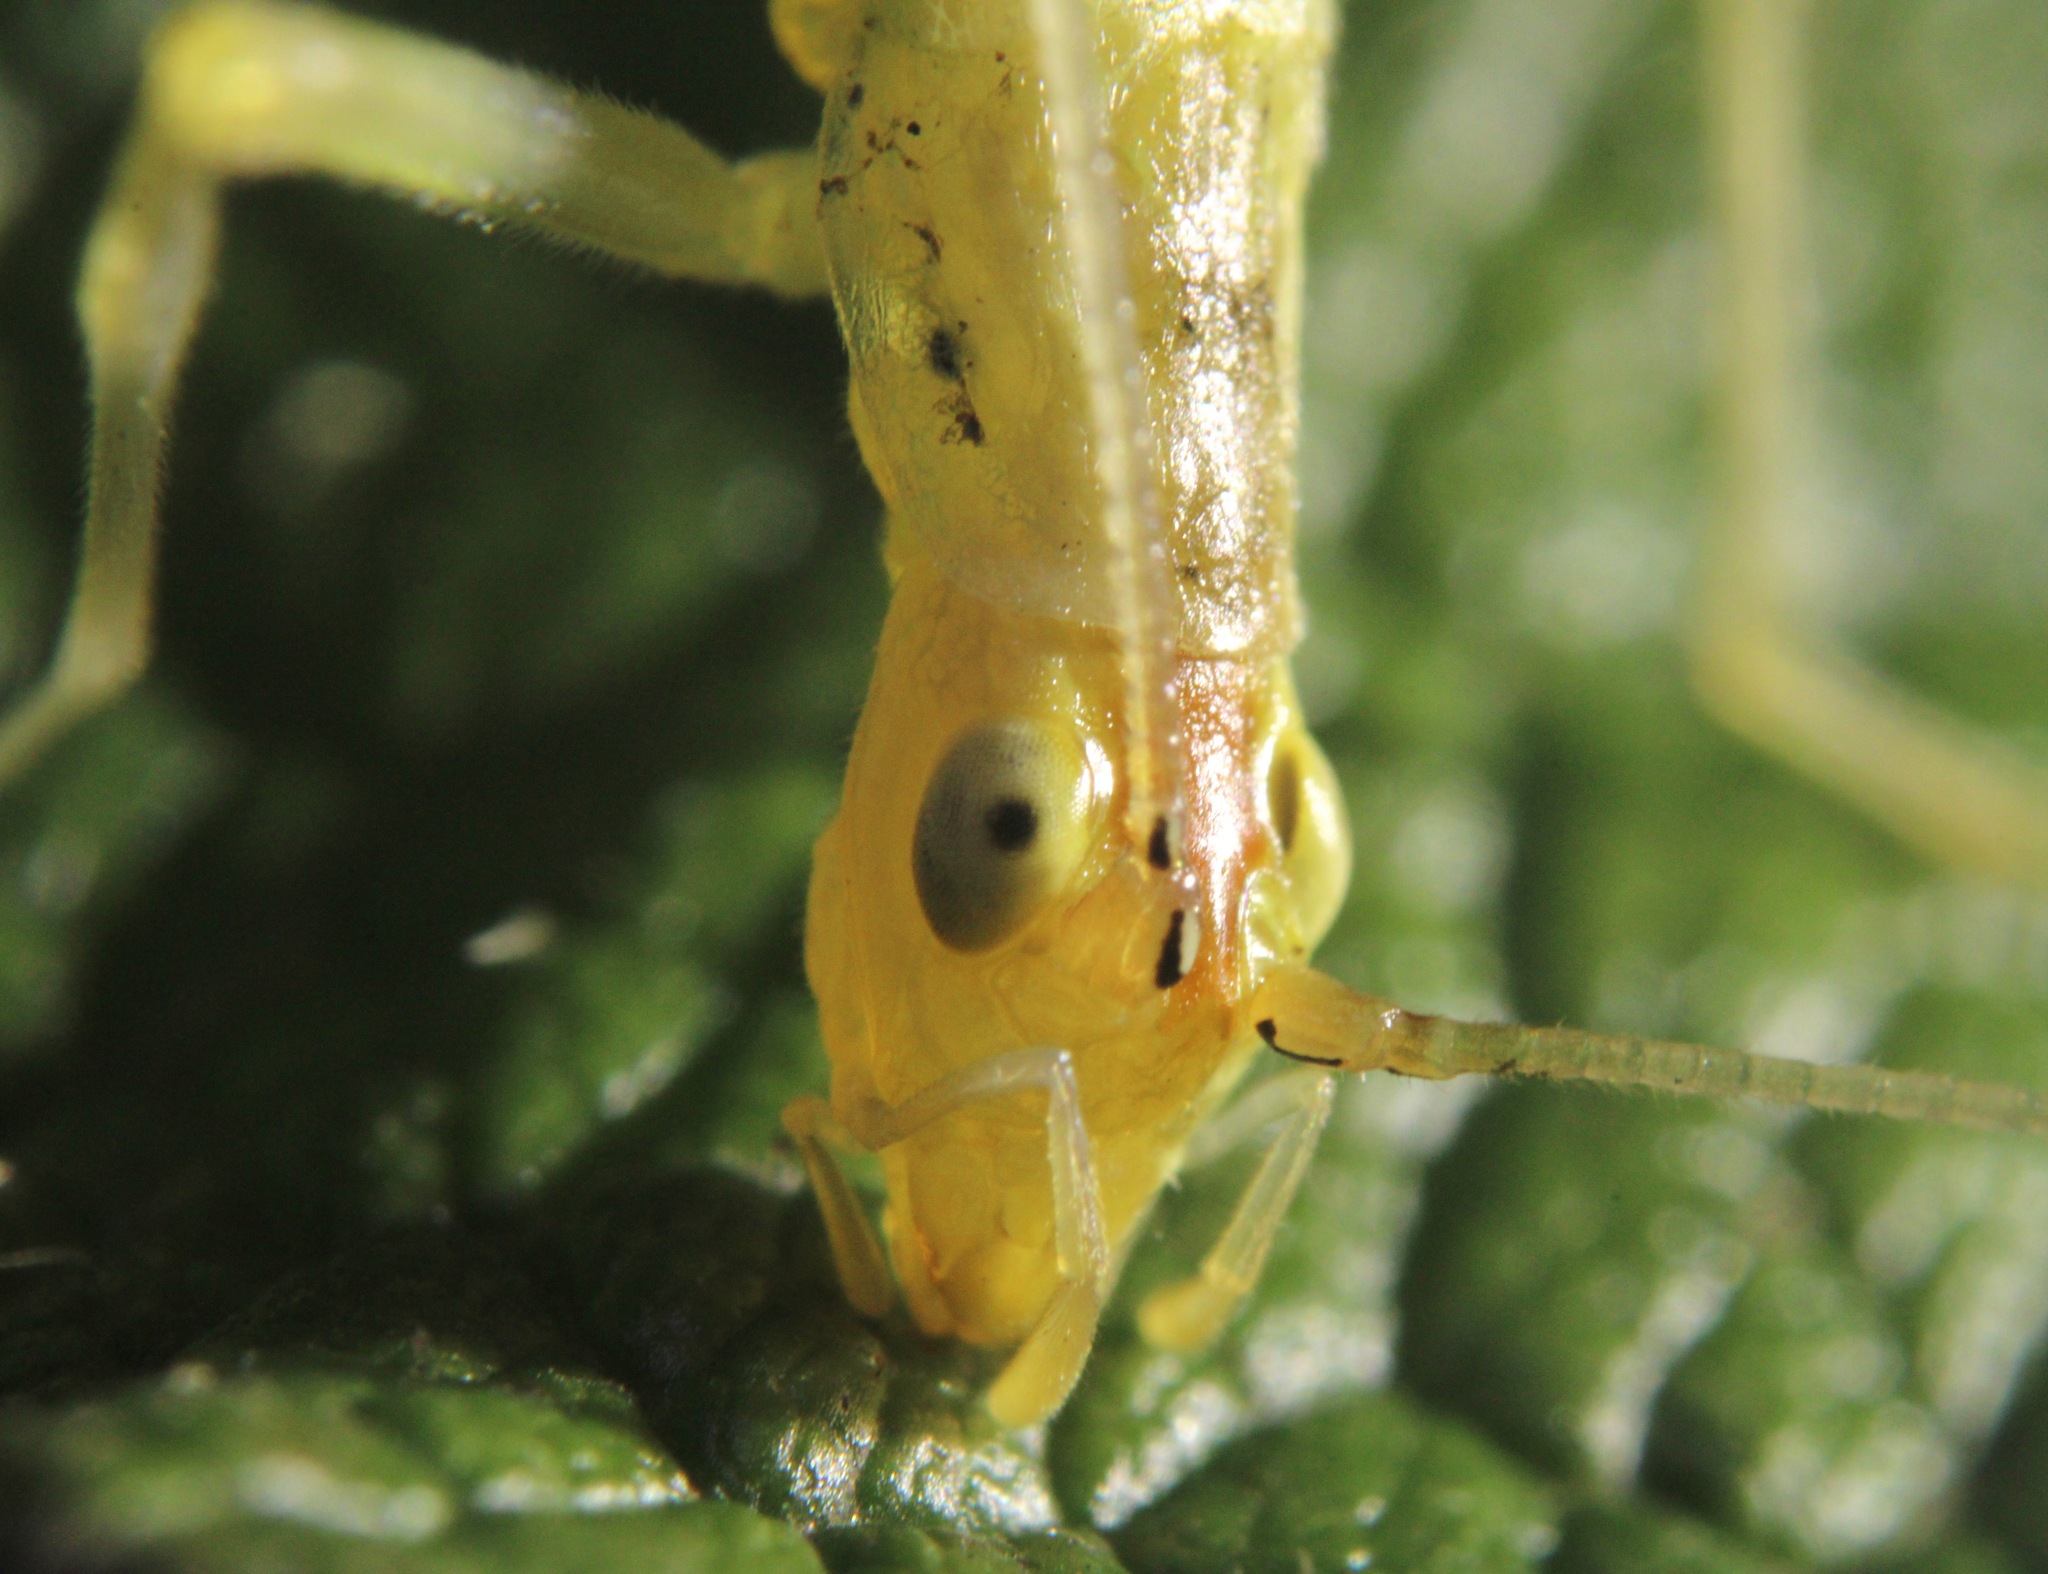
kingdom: Animalia
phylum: Arthropoda
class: Insecta
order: Orthoptera
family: Gryllidae
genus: Oecanthus
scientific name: Oecanthus niveus
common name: Narrow-winged tree cricket
